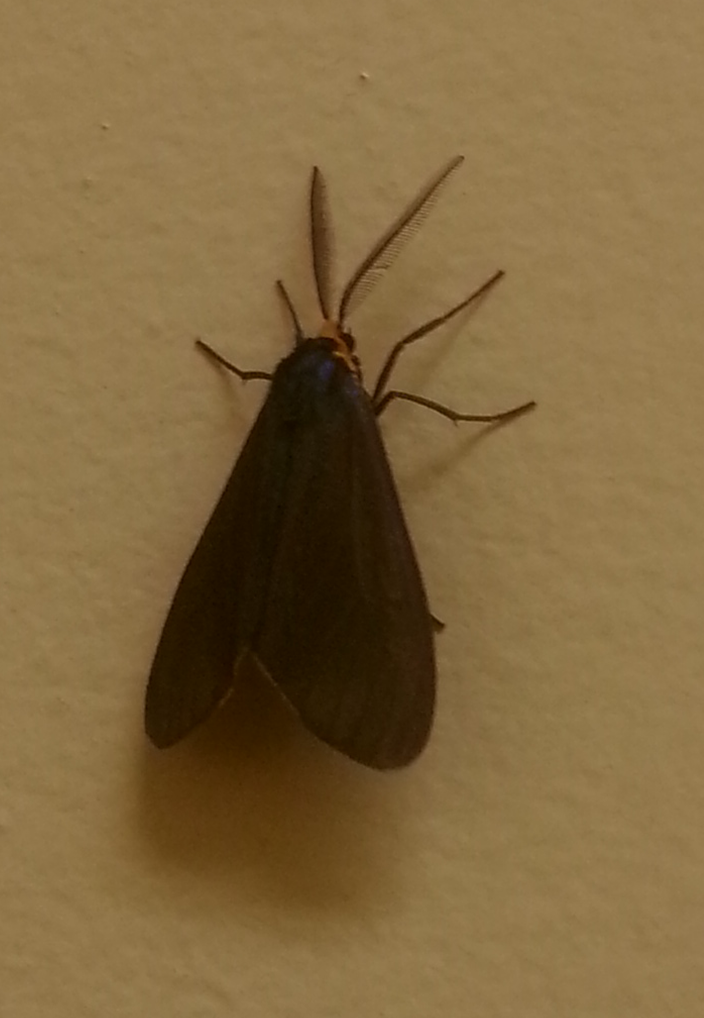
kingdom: Animalia
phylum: Arthropoda
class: Insecta
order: Lepidoptera
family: Erebidae
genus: Ctenucha
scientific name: Ctenucha virginica
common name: Virginia ctenucha moth
